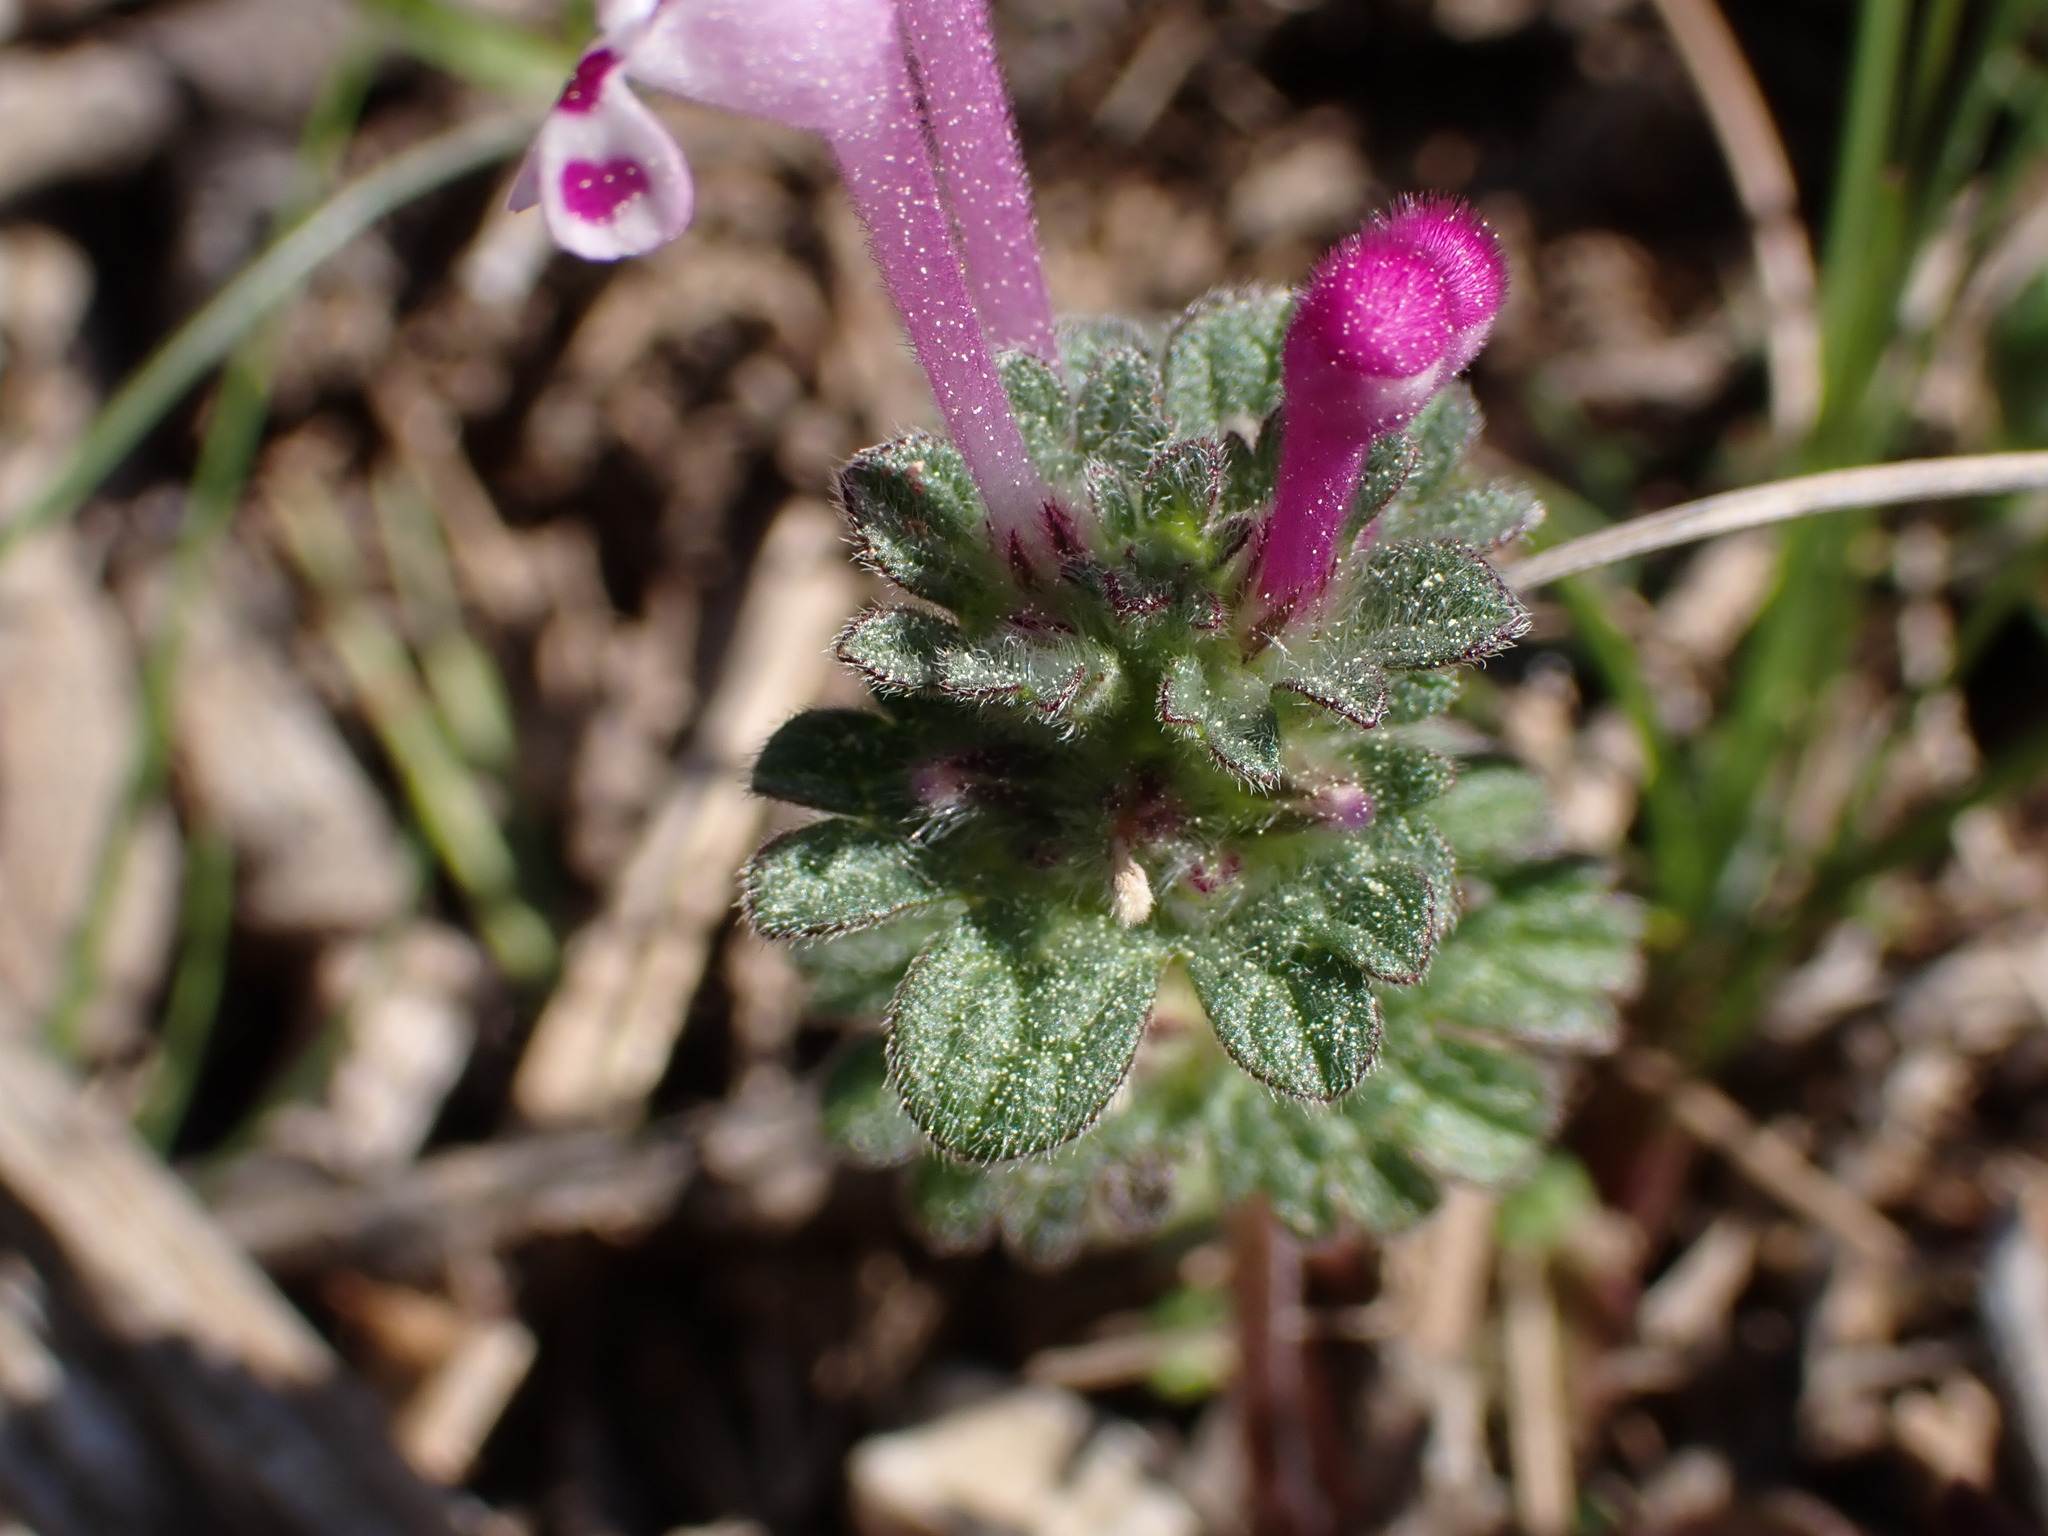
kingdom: Plantae
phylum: Tracheophyta
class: Magnoliopsida
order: Lamiales
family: Lamiaceae
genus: Lamium
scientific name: Lamium amplexicaule
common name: Henbit dead-nettle
